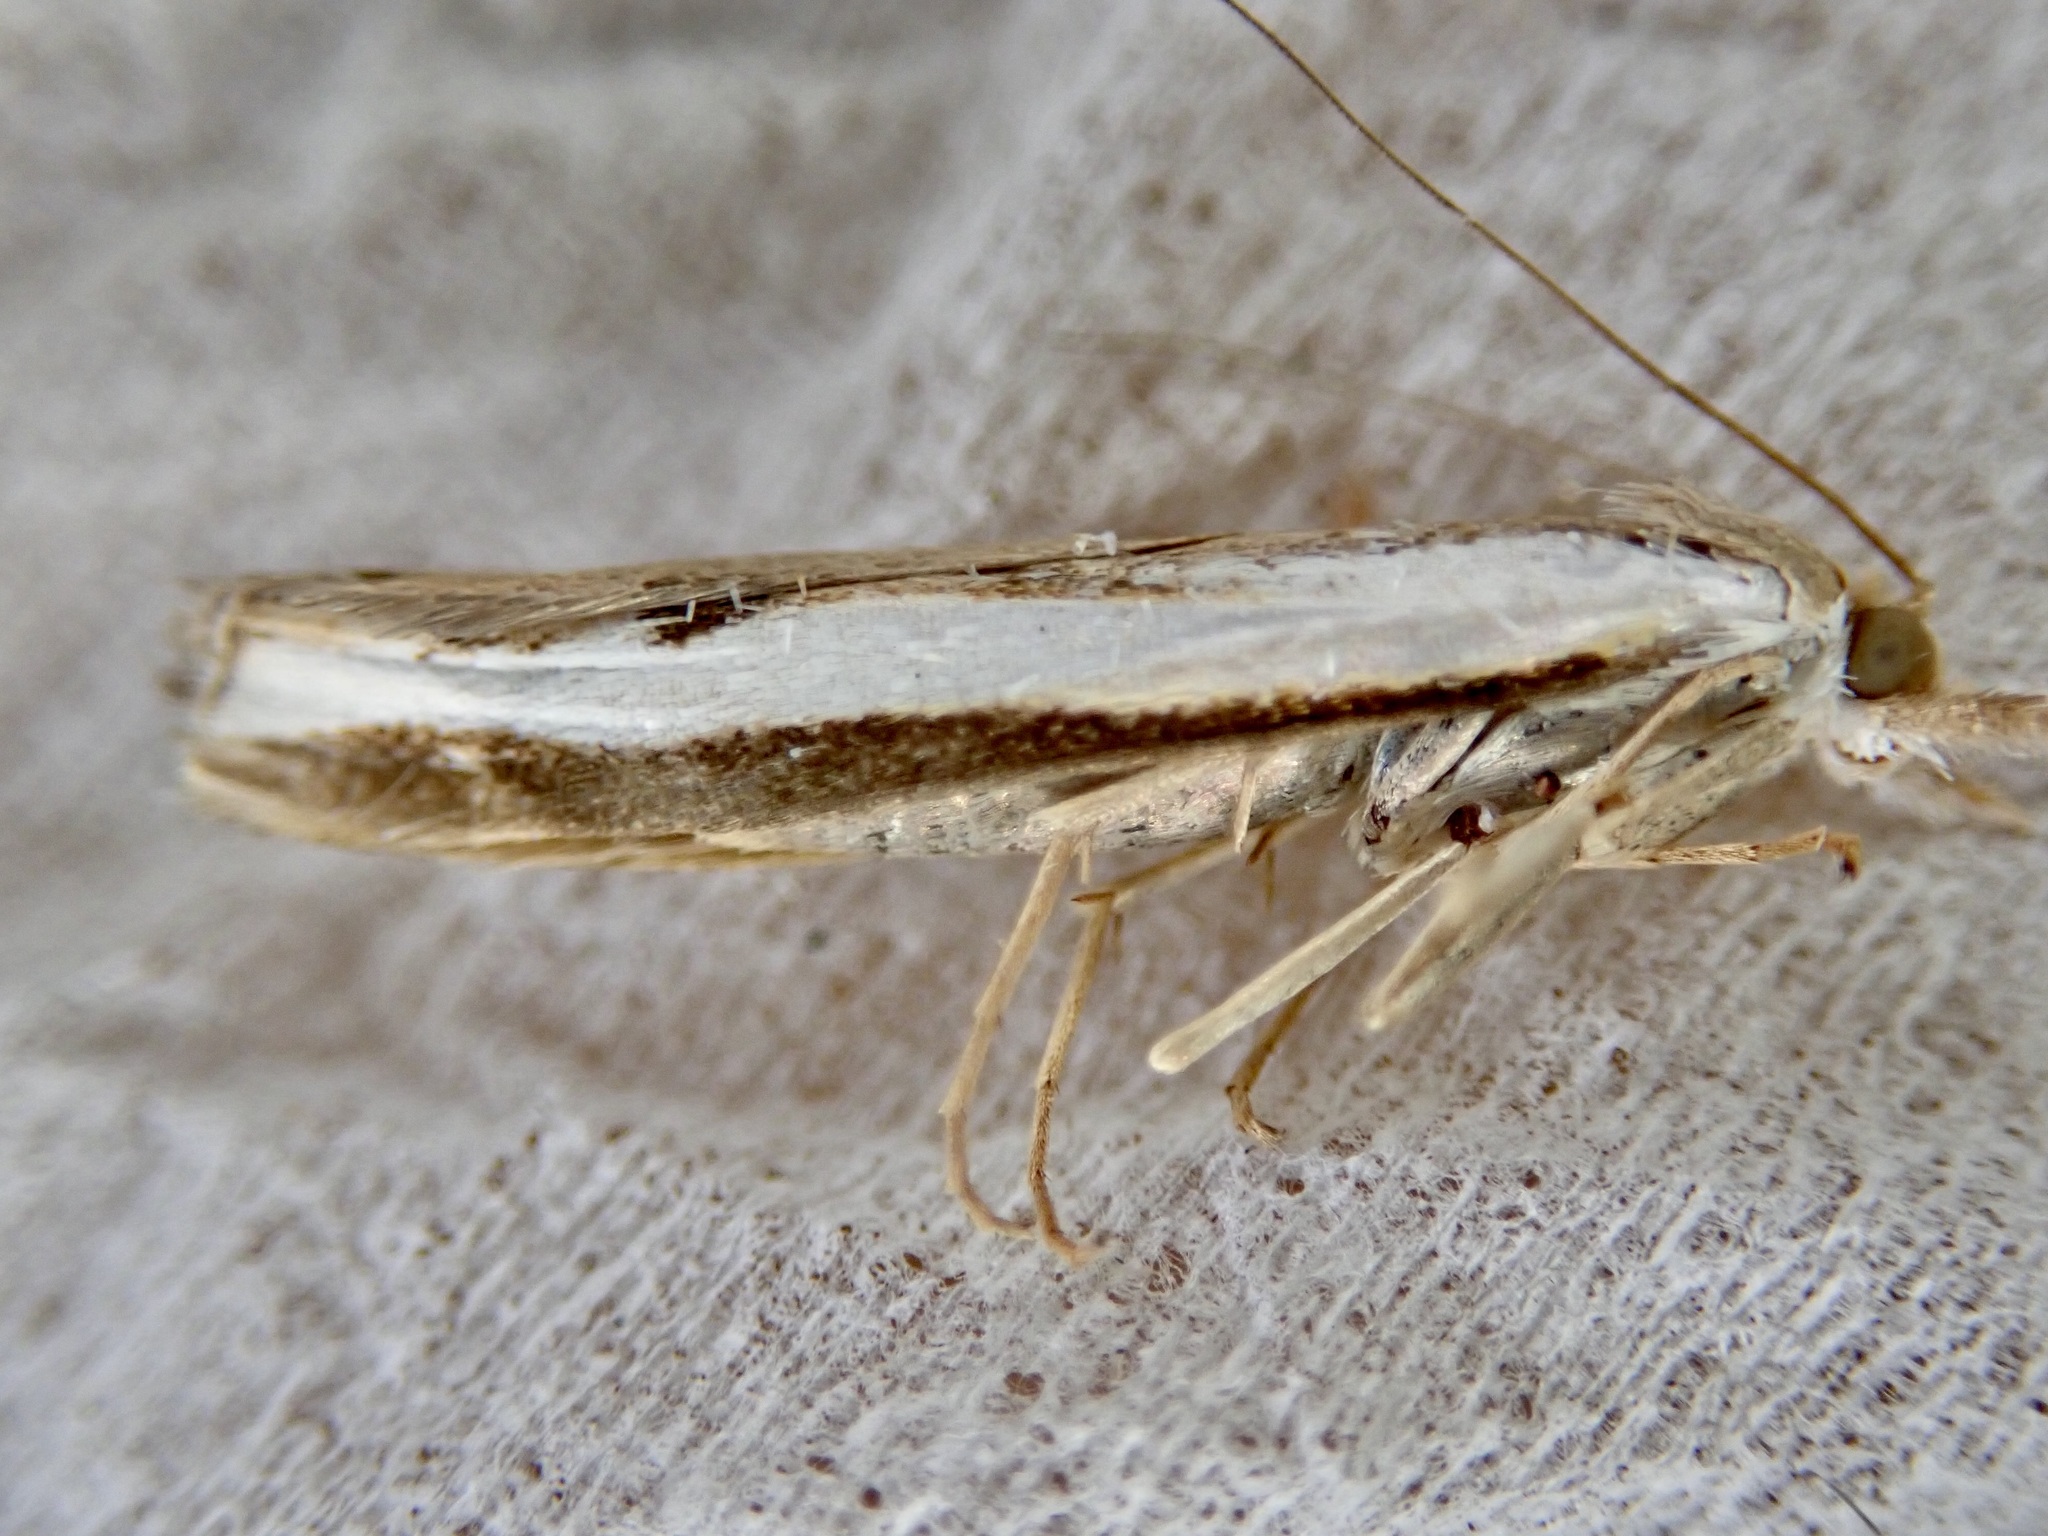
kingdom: Animalia
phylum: Arthropoda
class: Insecta
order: Lepidoptera
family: Crambidae
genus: Orocrambus
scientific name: Orocrambus flexuosellus
